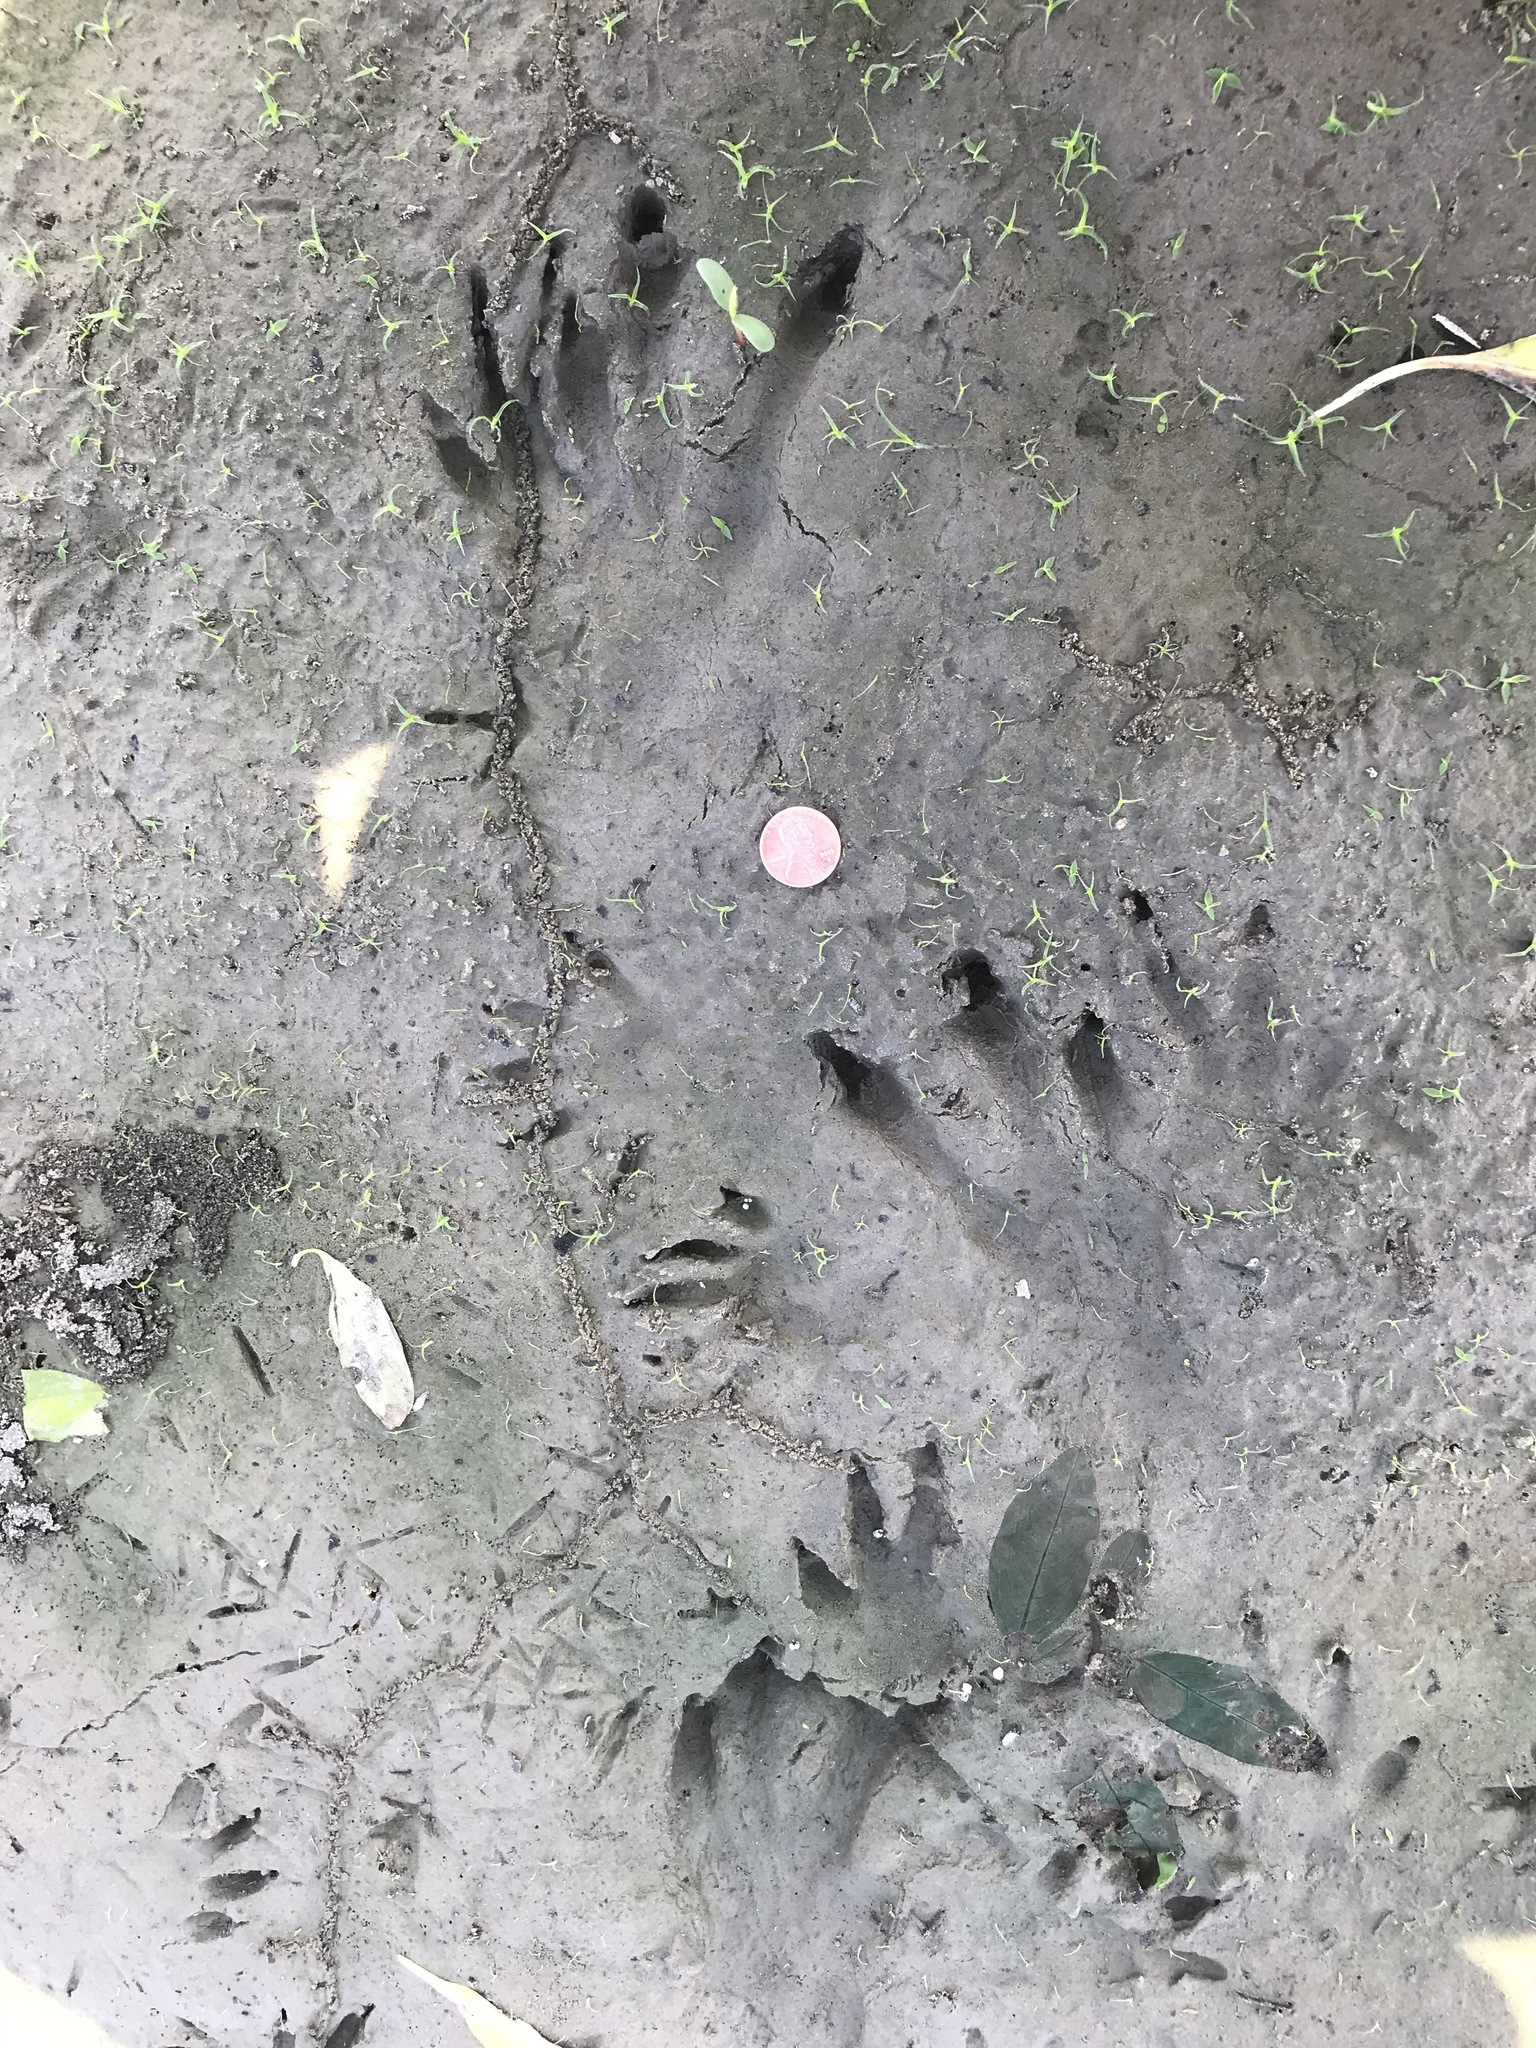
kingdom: Animalia
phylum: Chordata
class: Mammalia
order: Rodentia
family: Castoridae
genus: Castor
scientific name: Castor canadensis
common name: American beaver
